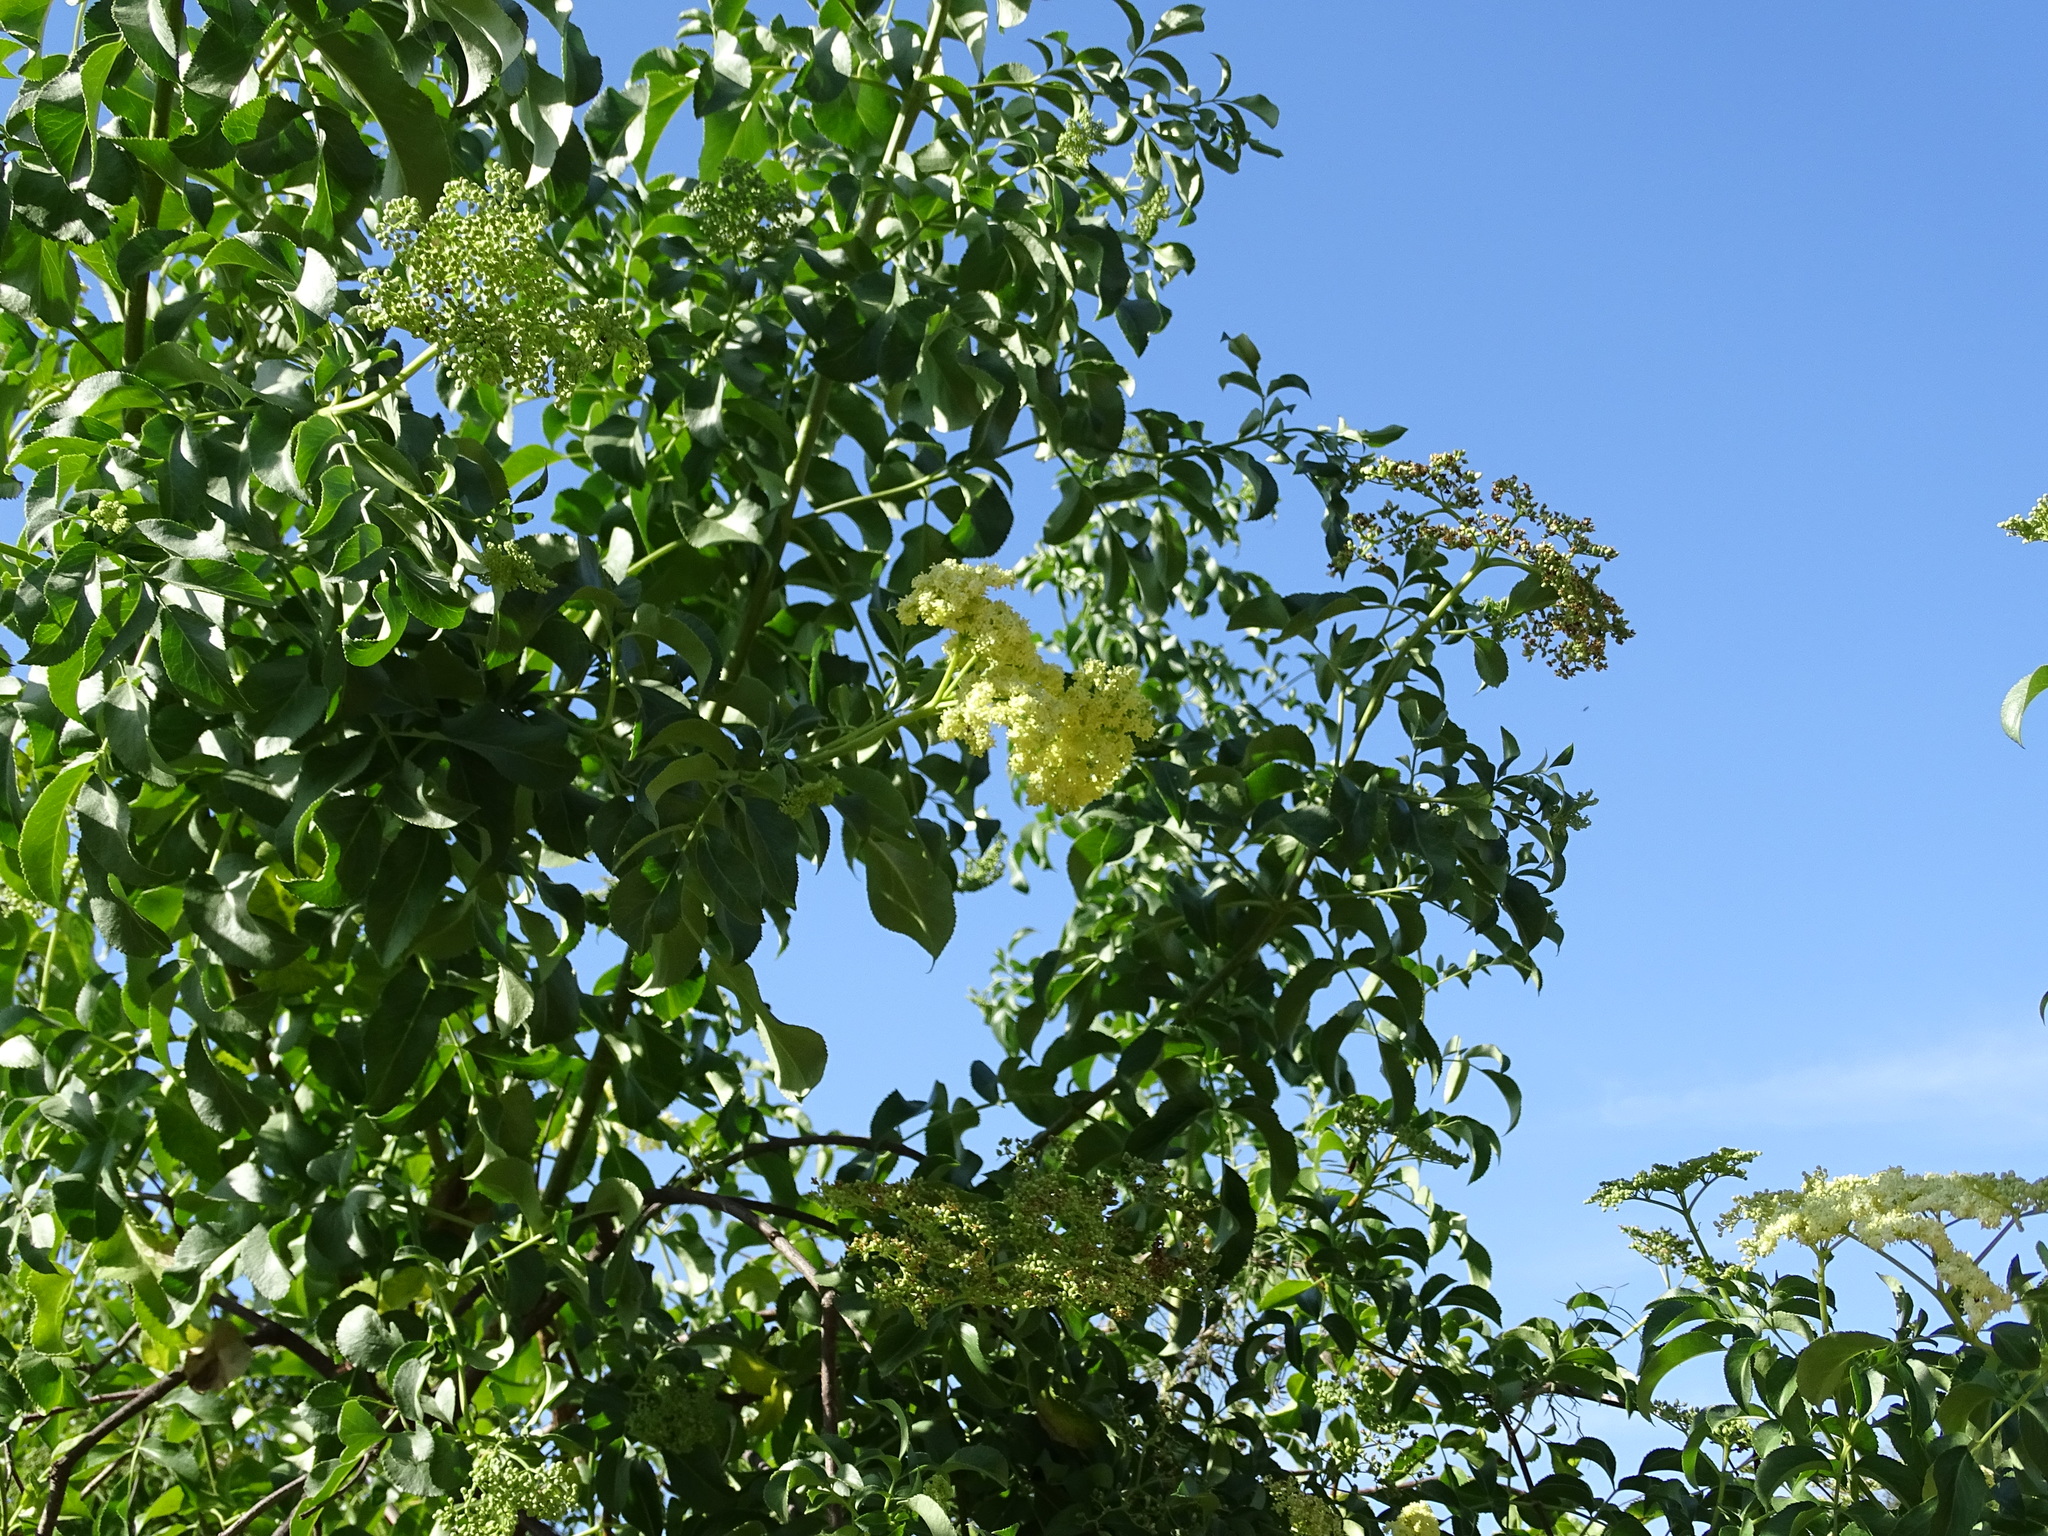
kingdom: Plantae
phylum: Tracheophyta
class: Magnoliopsida
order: Dipsacales
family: Viburnaceae
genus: Sambucus
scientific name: Sambucus cerulea
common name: Blue elder
